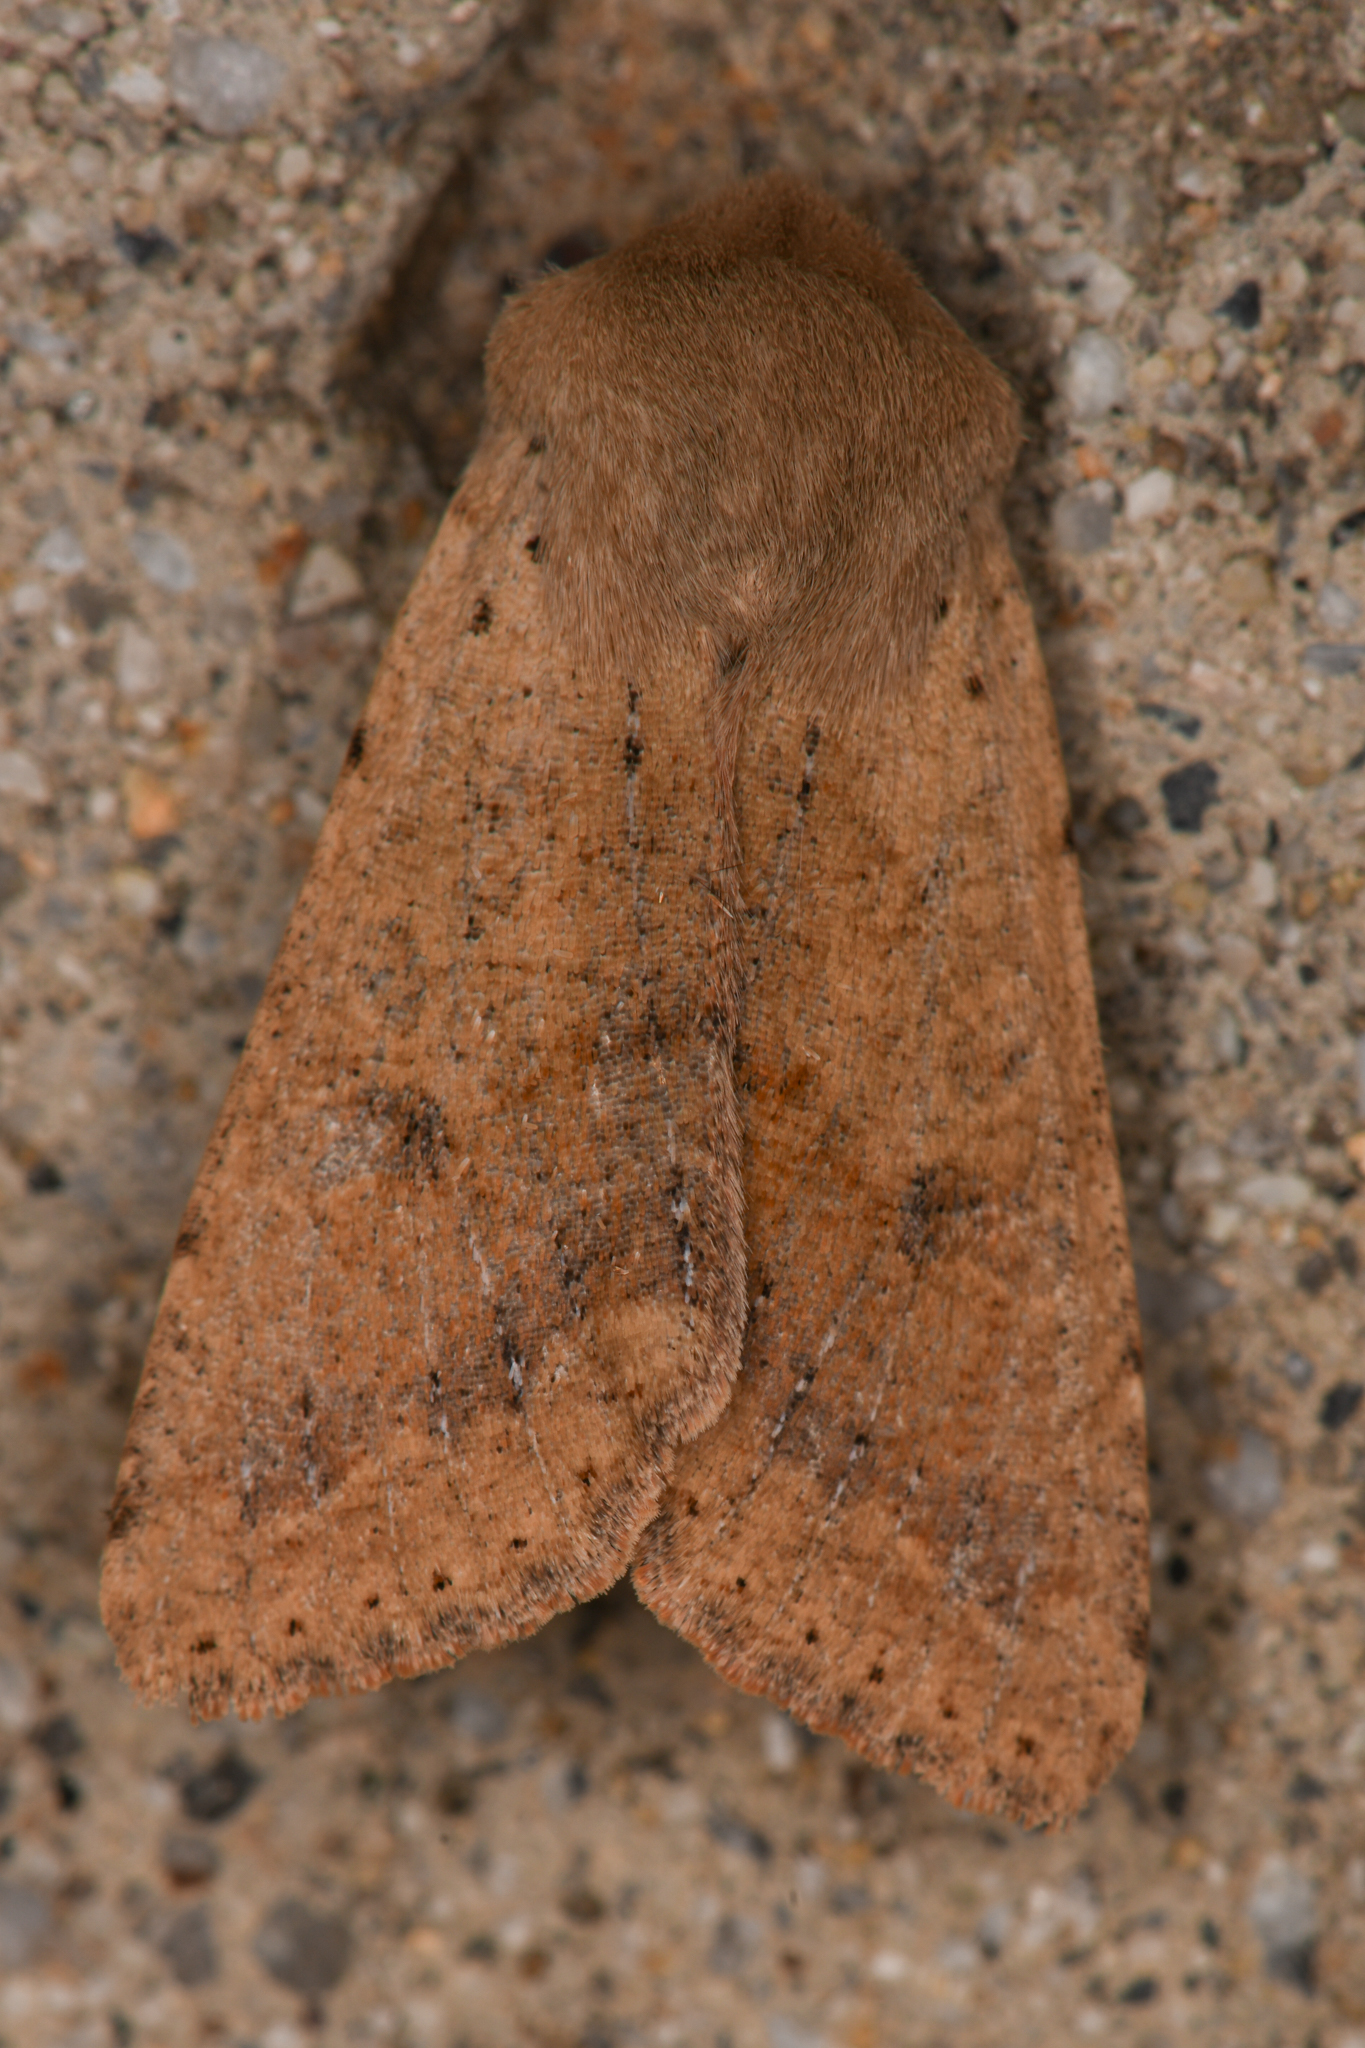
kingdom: Animalia
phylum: Arthropoda
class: Insecta
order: Lepidoptera
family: Noctuidae
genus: Orthosia
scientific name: Orthosia pacifica
